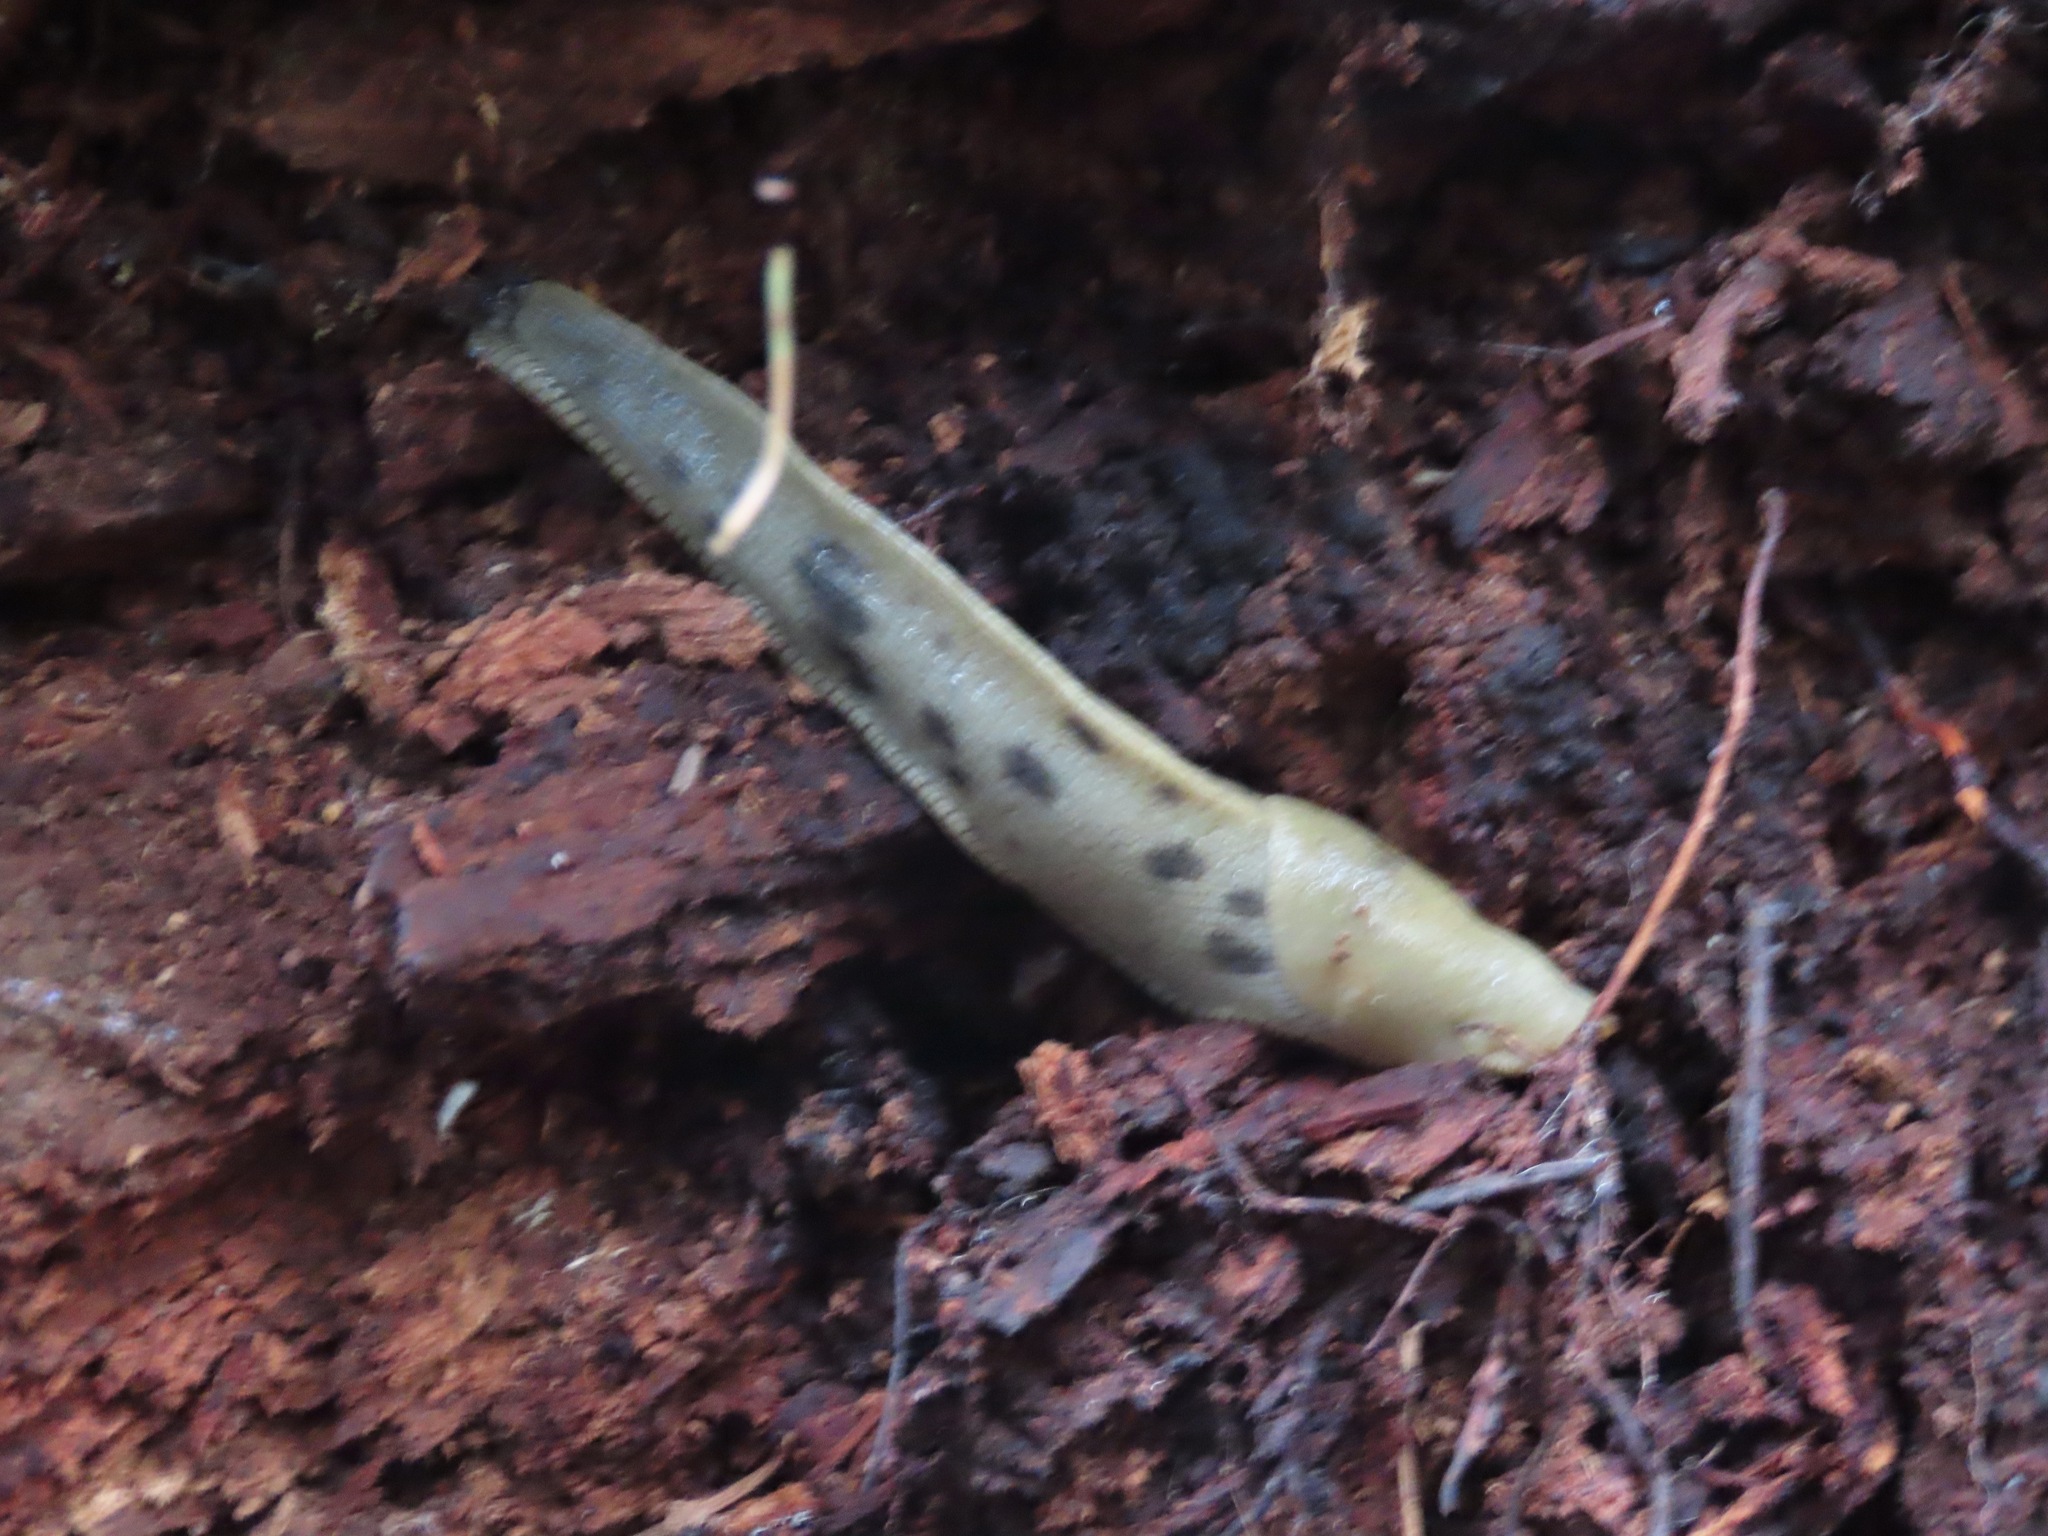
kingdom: Animalia
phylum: Mollusca
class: Gastropoda
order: Stylommatophora
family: Ariolimacidae
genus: Ariolimax
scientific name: Ariolimax columbianus
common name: Pacific banana slug
